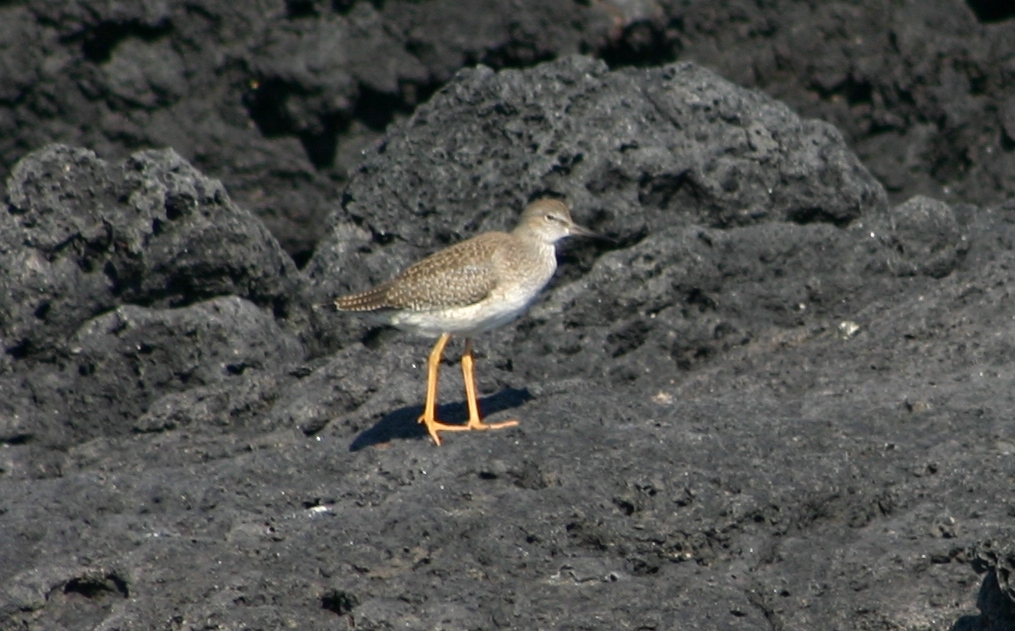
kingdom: Animalia
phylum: Chordata
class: Aves
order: Charadriiformes
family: Scolopacidae
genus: Tringa
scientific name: Tringa totanus
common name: Common redshank
